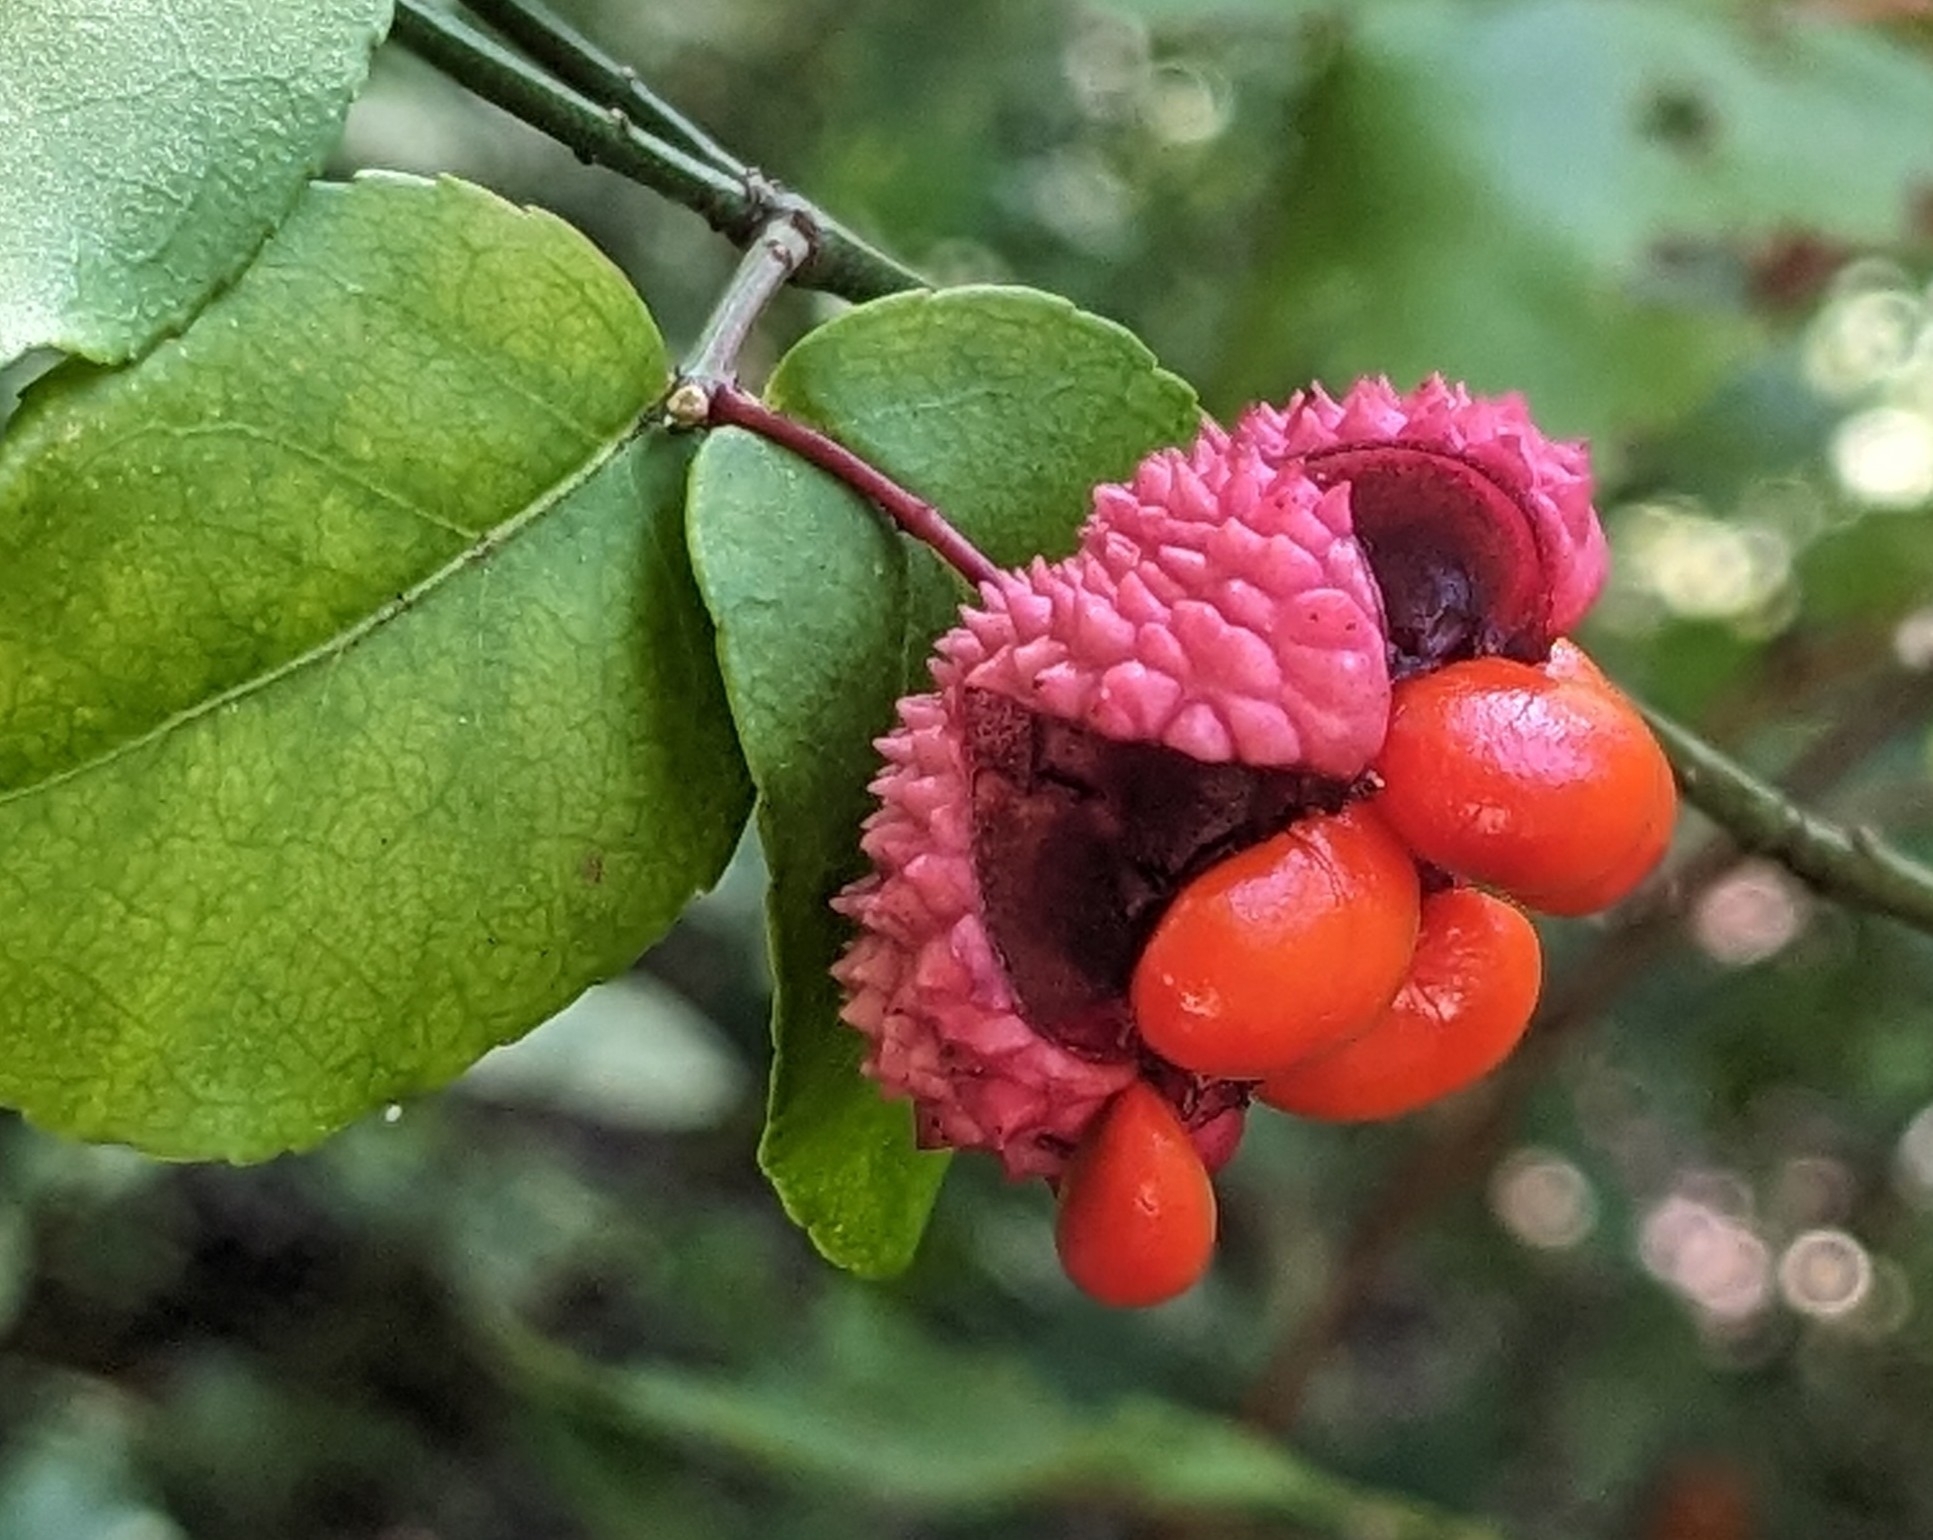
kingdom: Plantae
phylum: Tracheophyta
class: Magnoliopsida
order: Celastrales
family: Celastraceae
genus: Euonymus
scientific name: Euonymus americanus
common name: Bursting-heart
